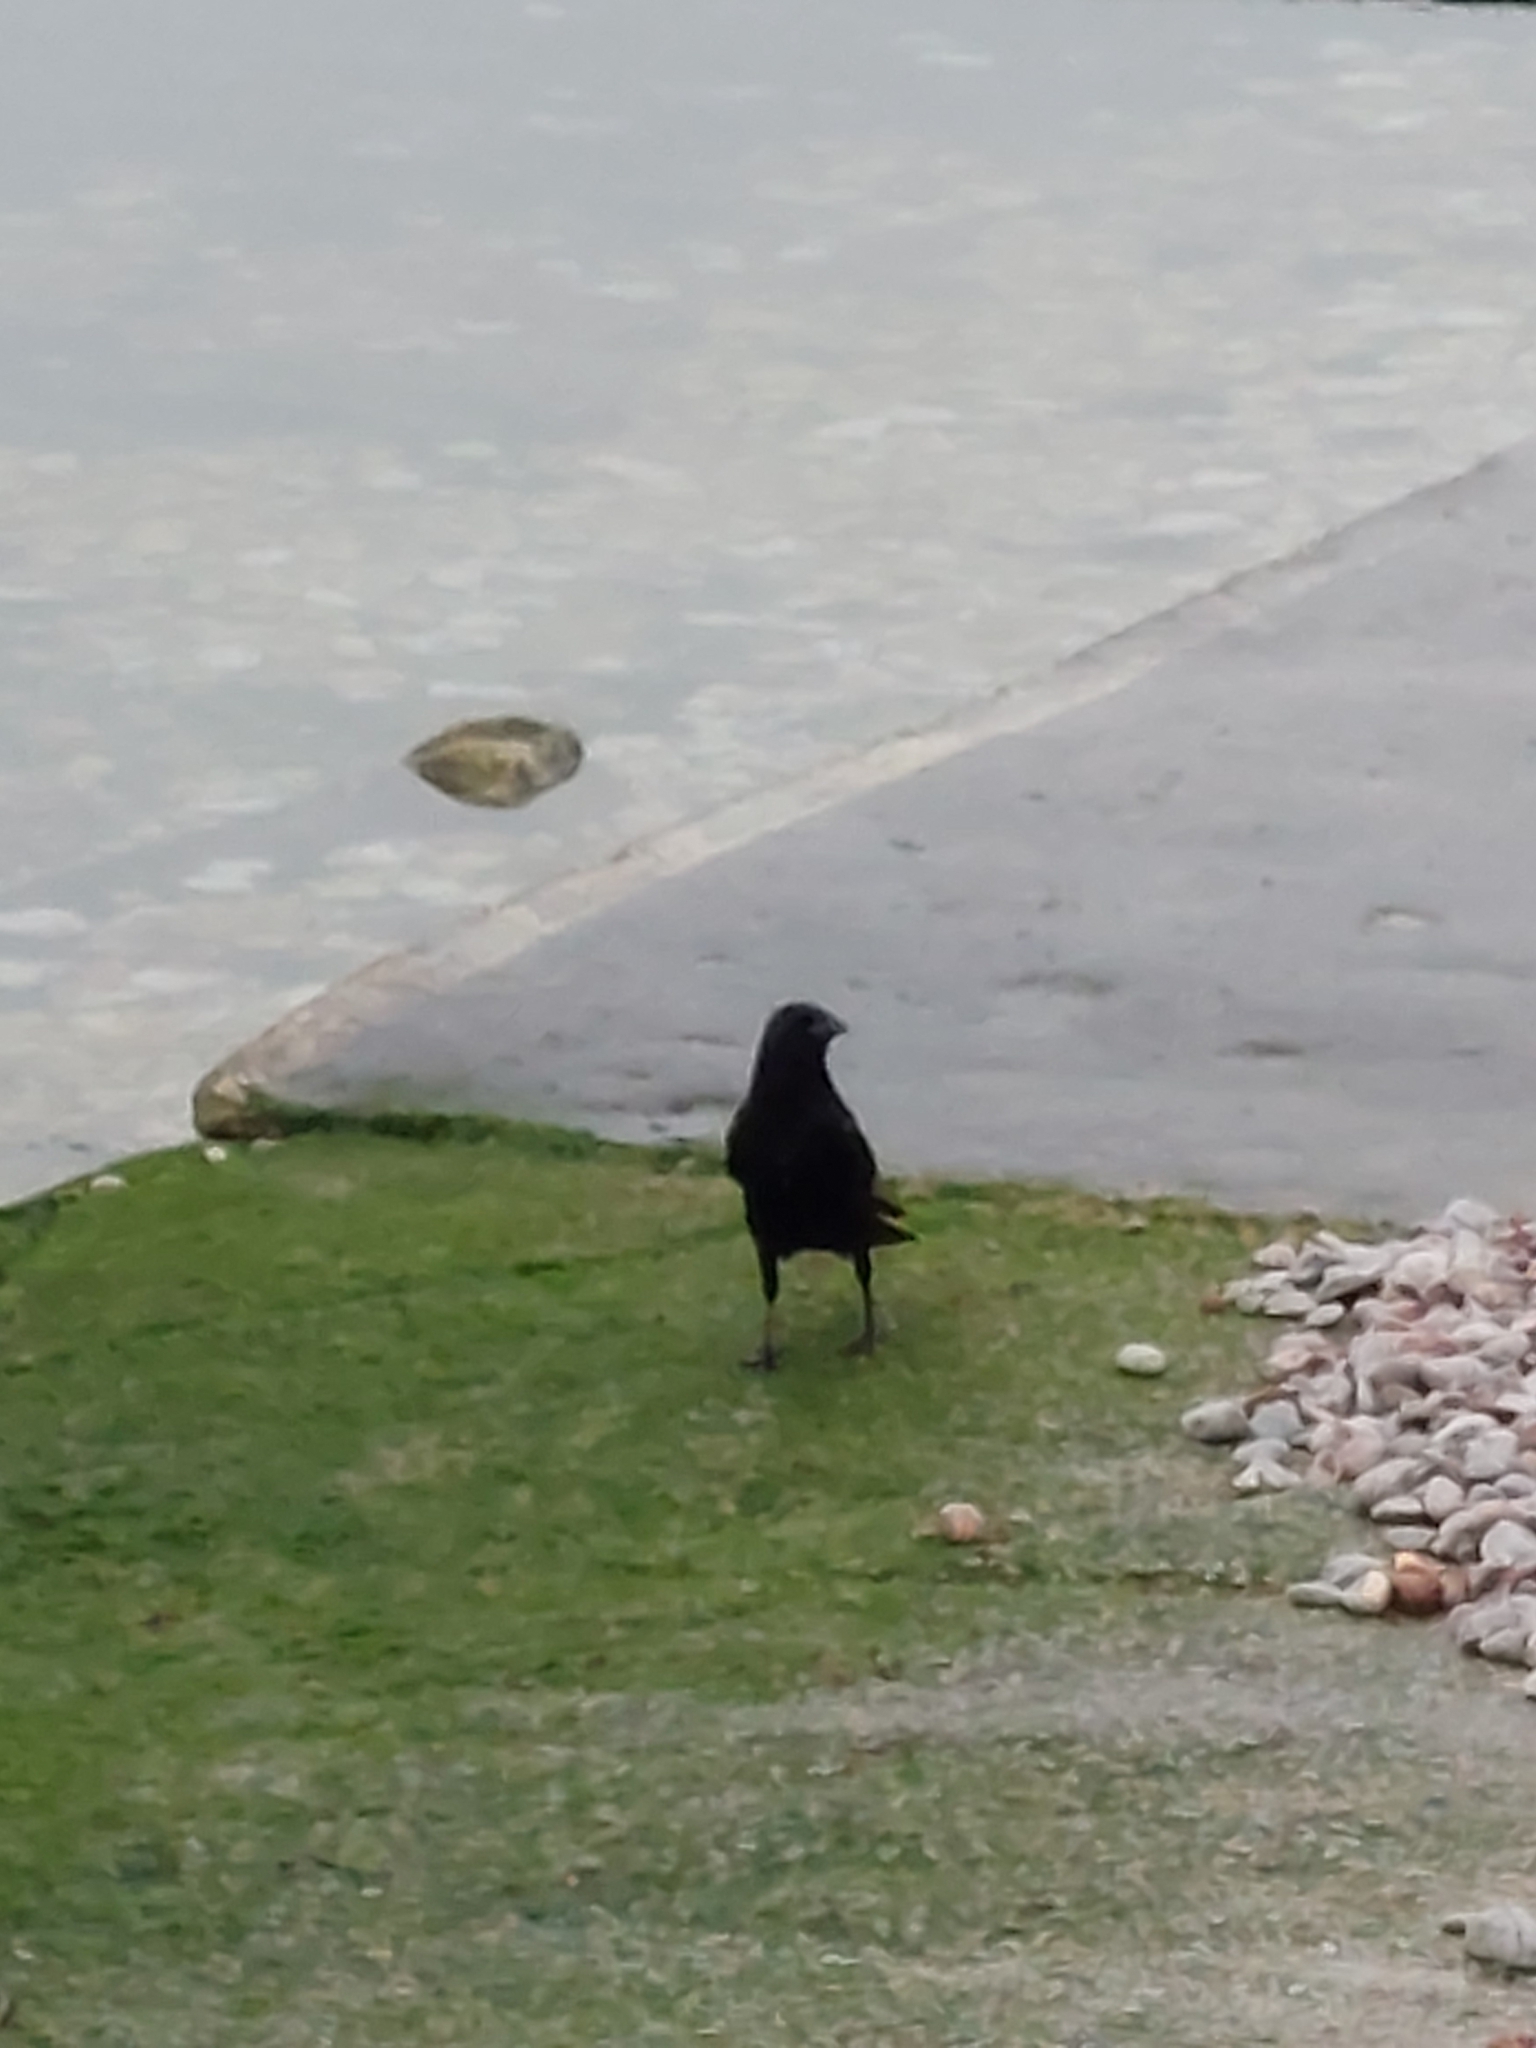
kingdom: Animalia
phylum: Chordata
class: Aves
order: Passeriformes
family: Corvidae
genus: Corvus
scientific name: Corvus corone
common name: Carrion crow
